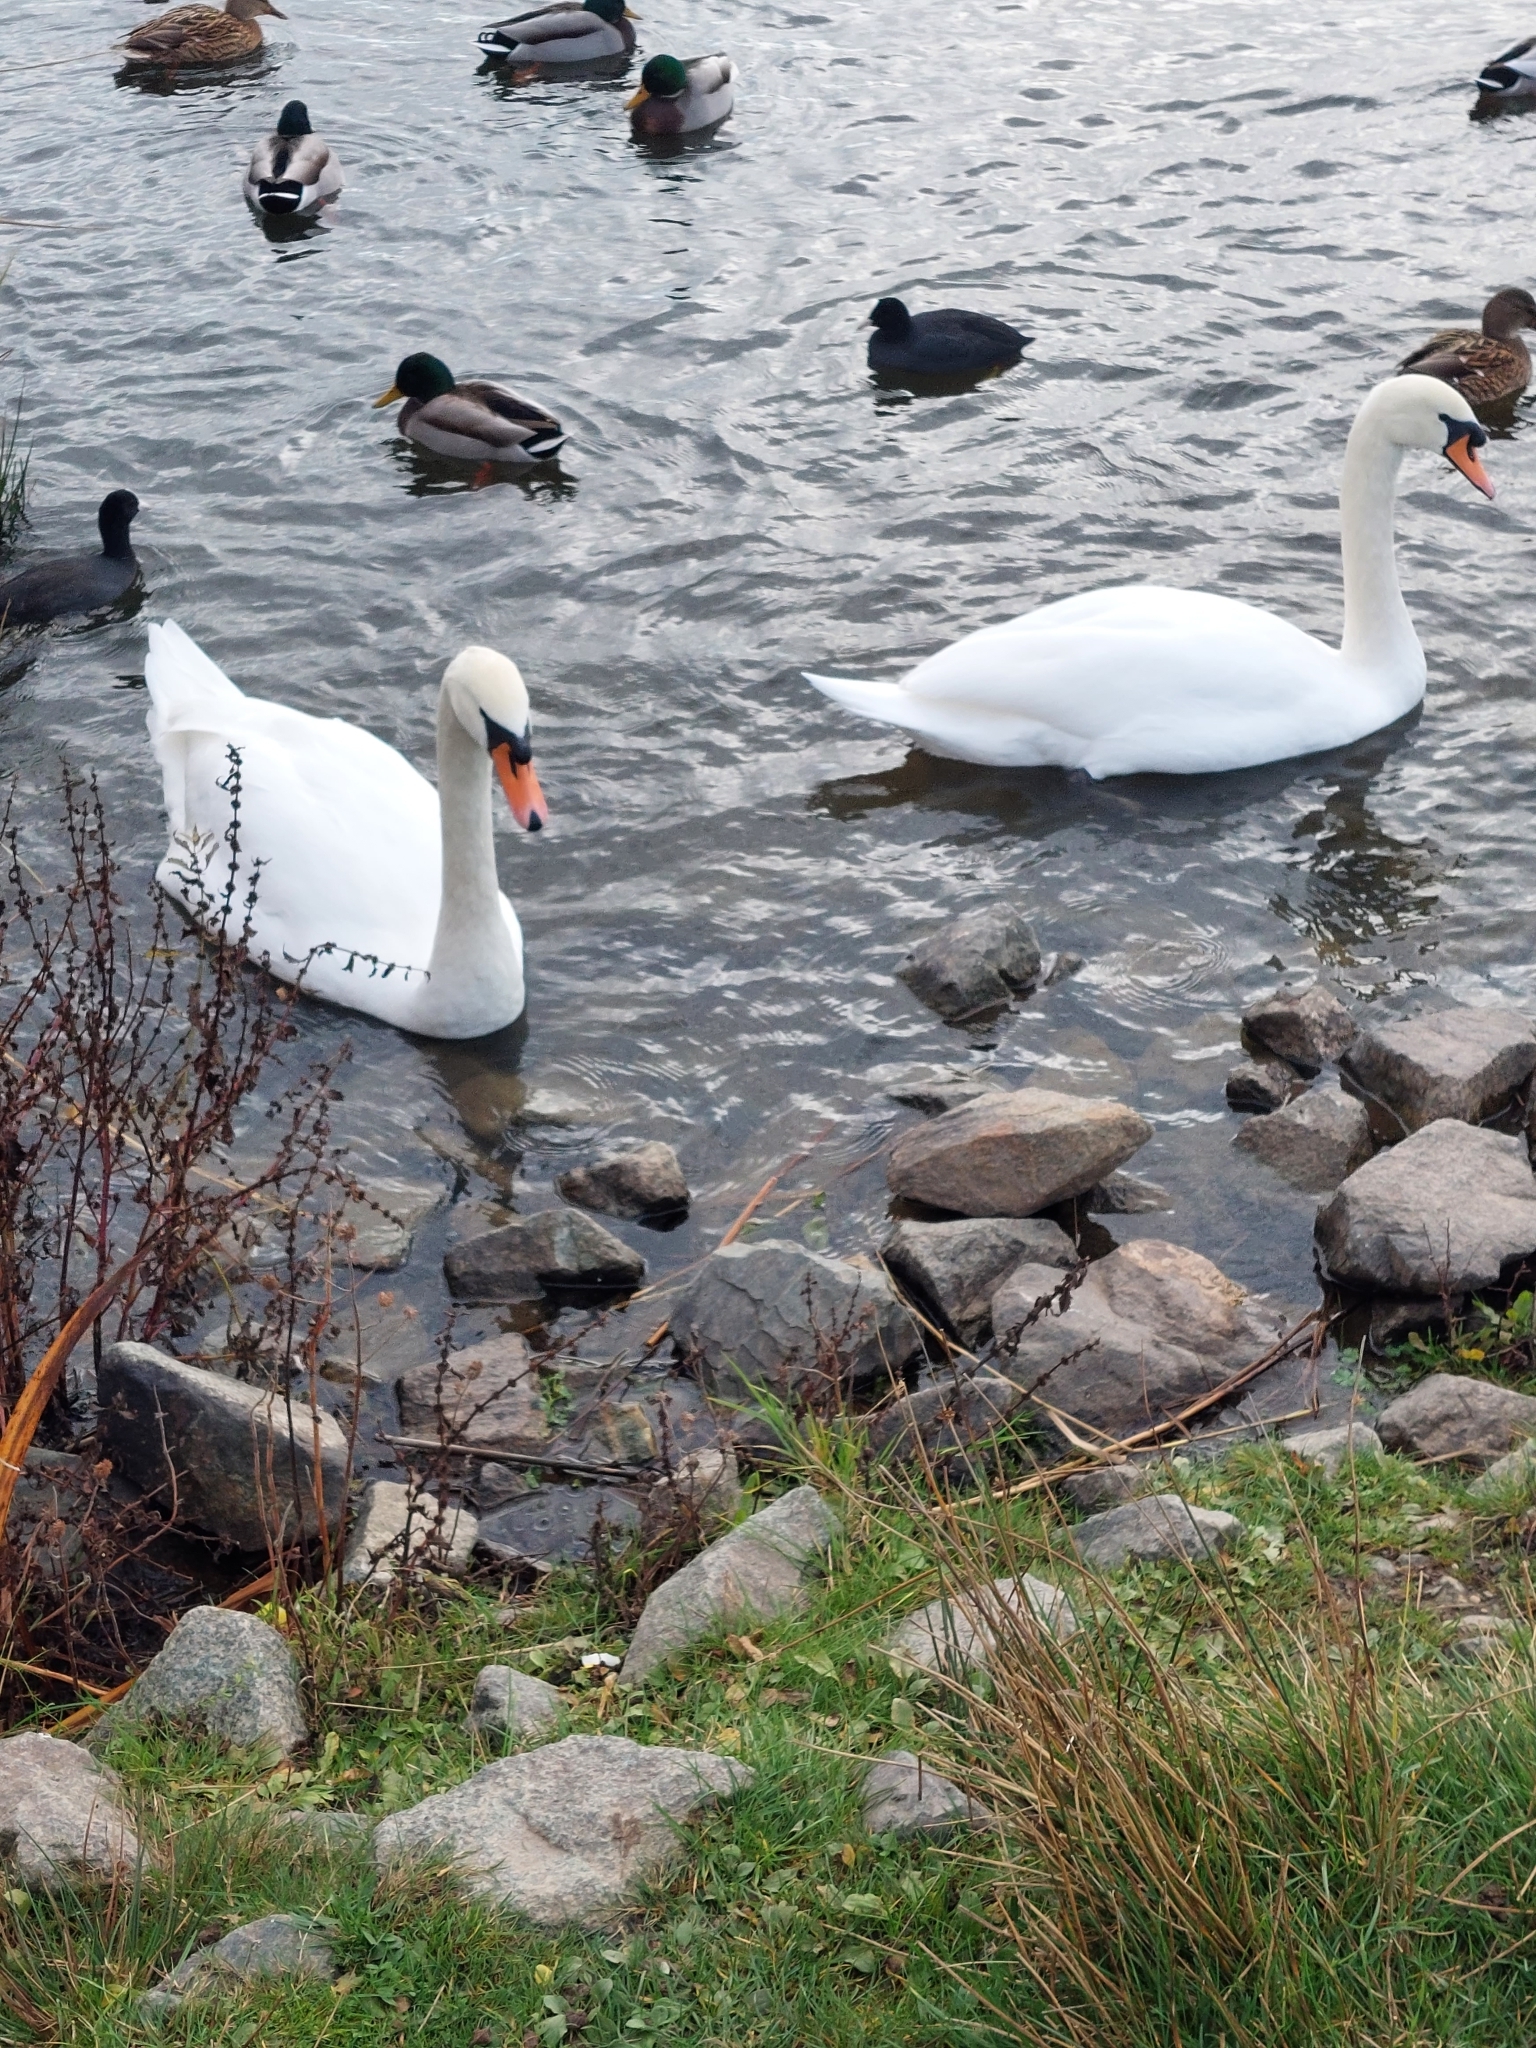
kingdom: Animalia
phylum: Chordata
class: Aves
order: Anseriformes
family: Anatidae
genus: Cygnus
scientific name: Cygnus olor
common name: Mute swan
